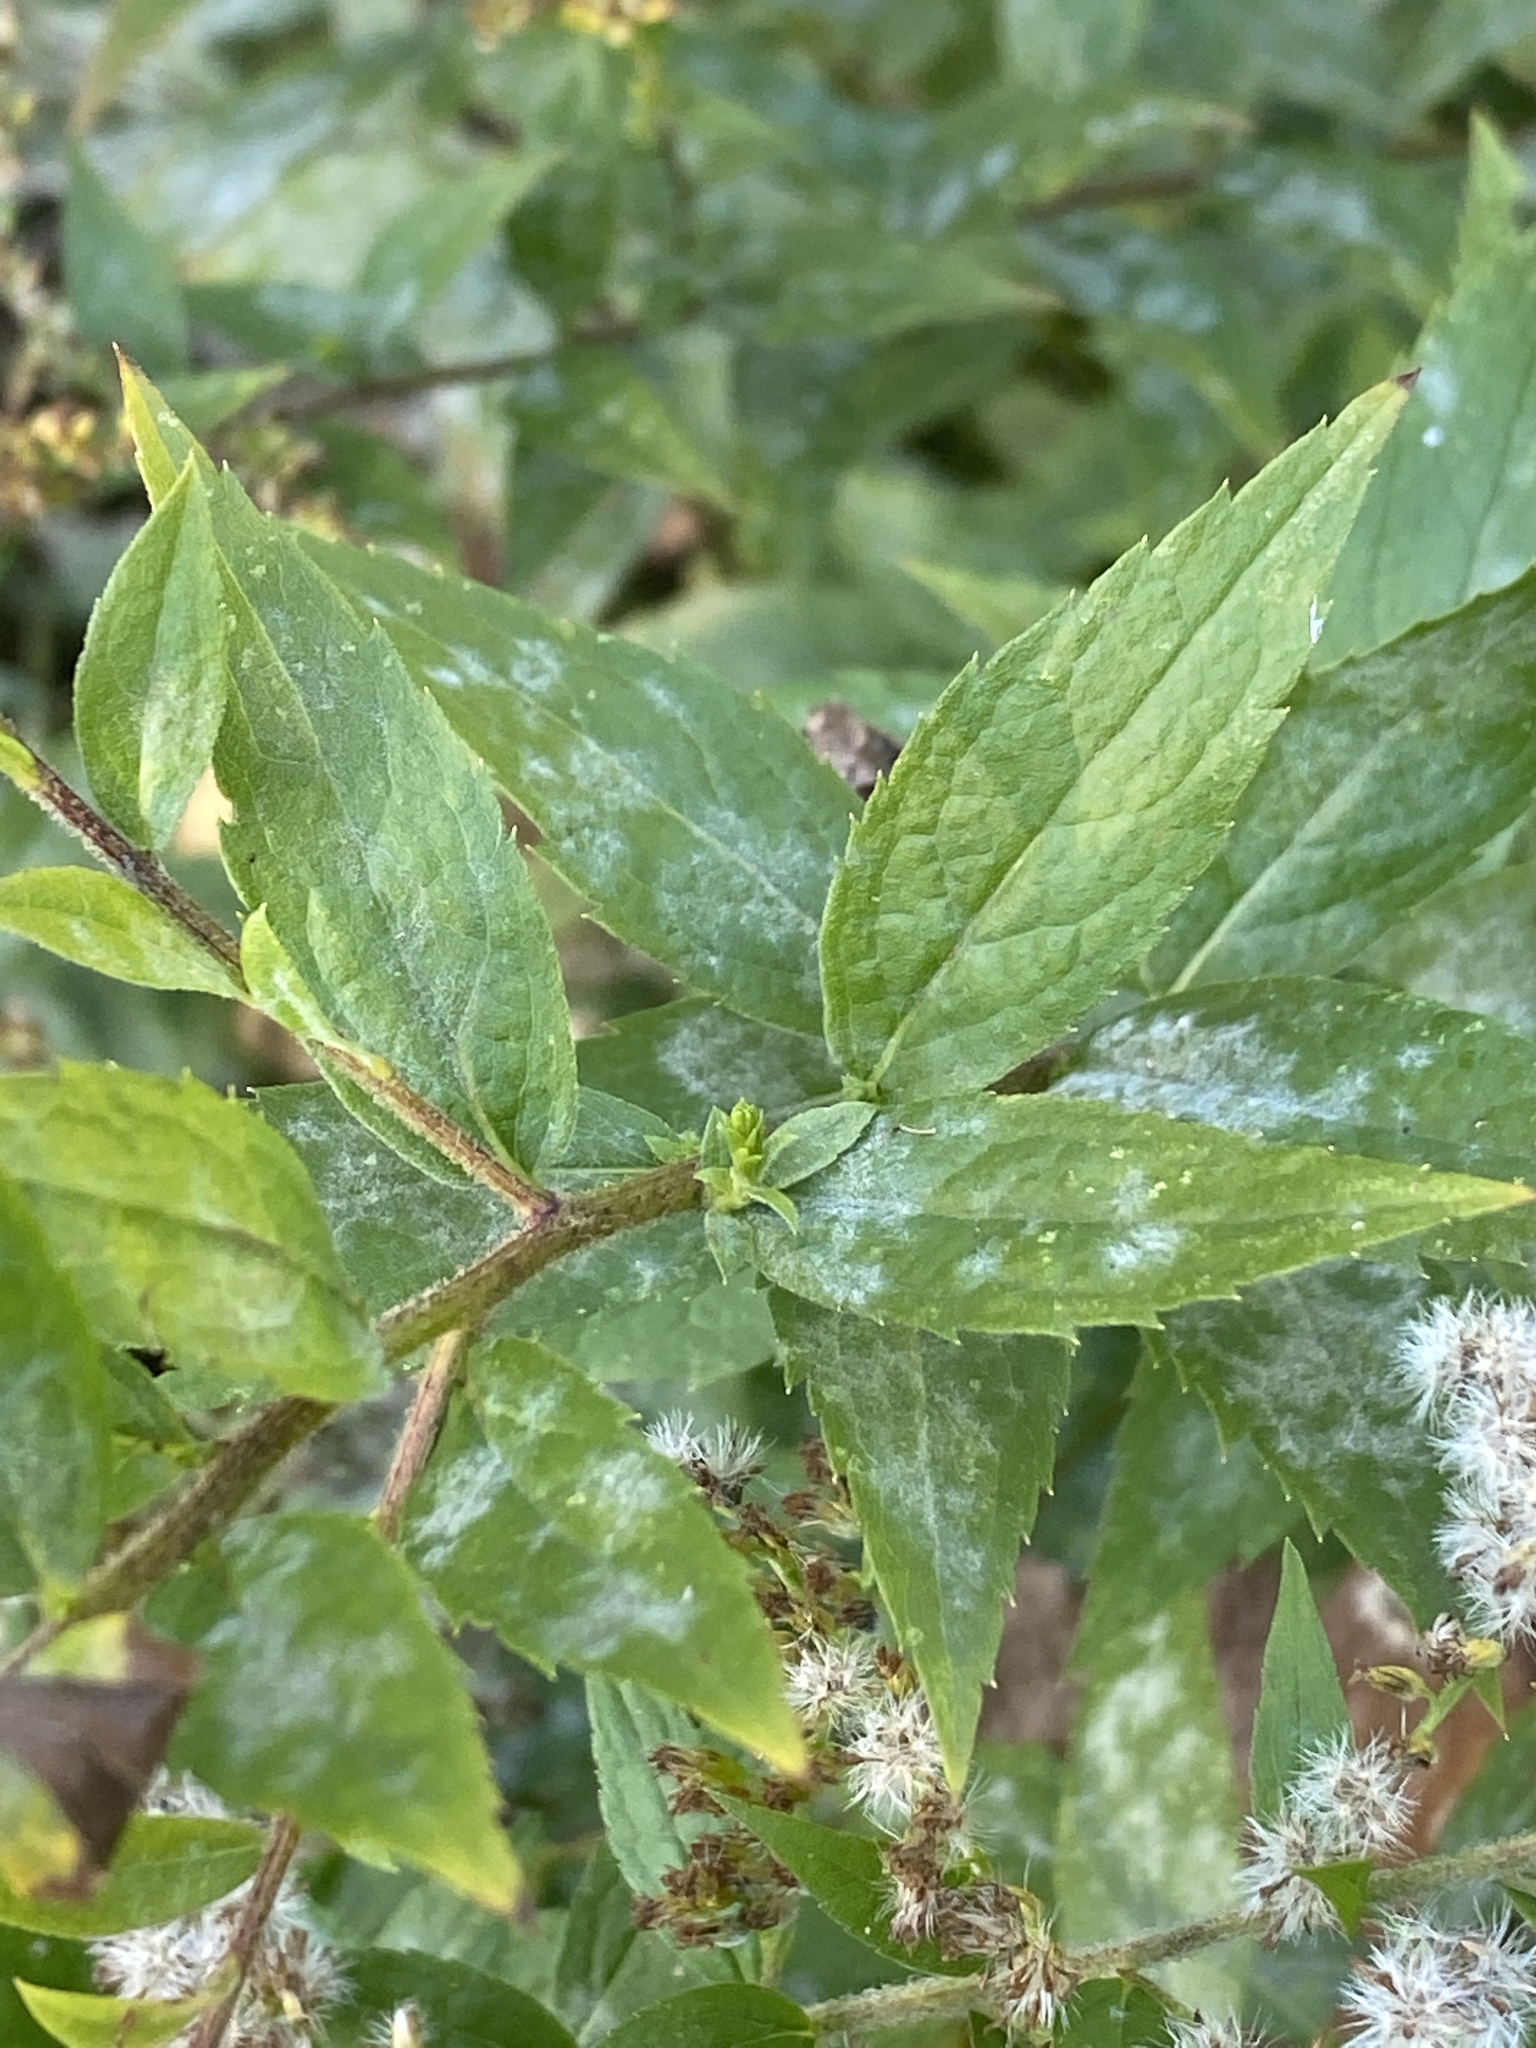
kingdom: Plantae
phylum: Tracheophyta
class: Magnoliopsida
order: Asterales
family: Asteraceae
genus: Solidago
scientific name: Solidago rugosa
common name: Rough-stemmed goldenrod
